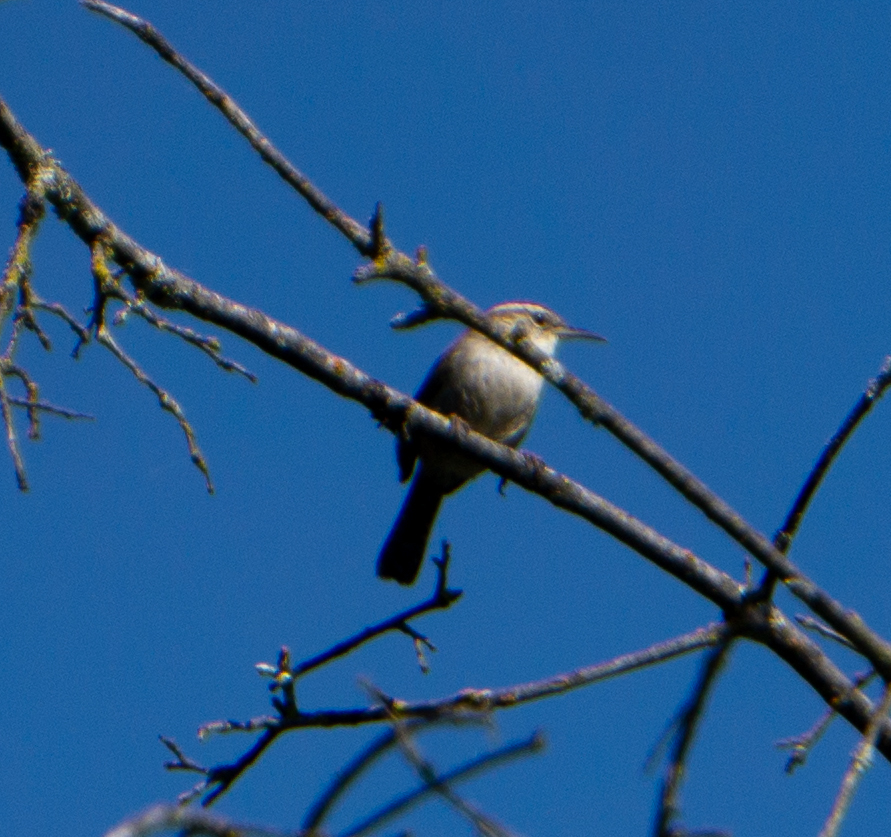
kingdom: Animalia
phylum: Chordata
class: Aves
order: Passeriformes
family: Troglodytidae
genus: Thryomanes
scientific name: Thryomanes bewickii
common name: Bewick's wren
